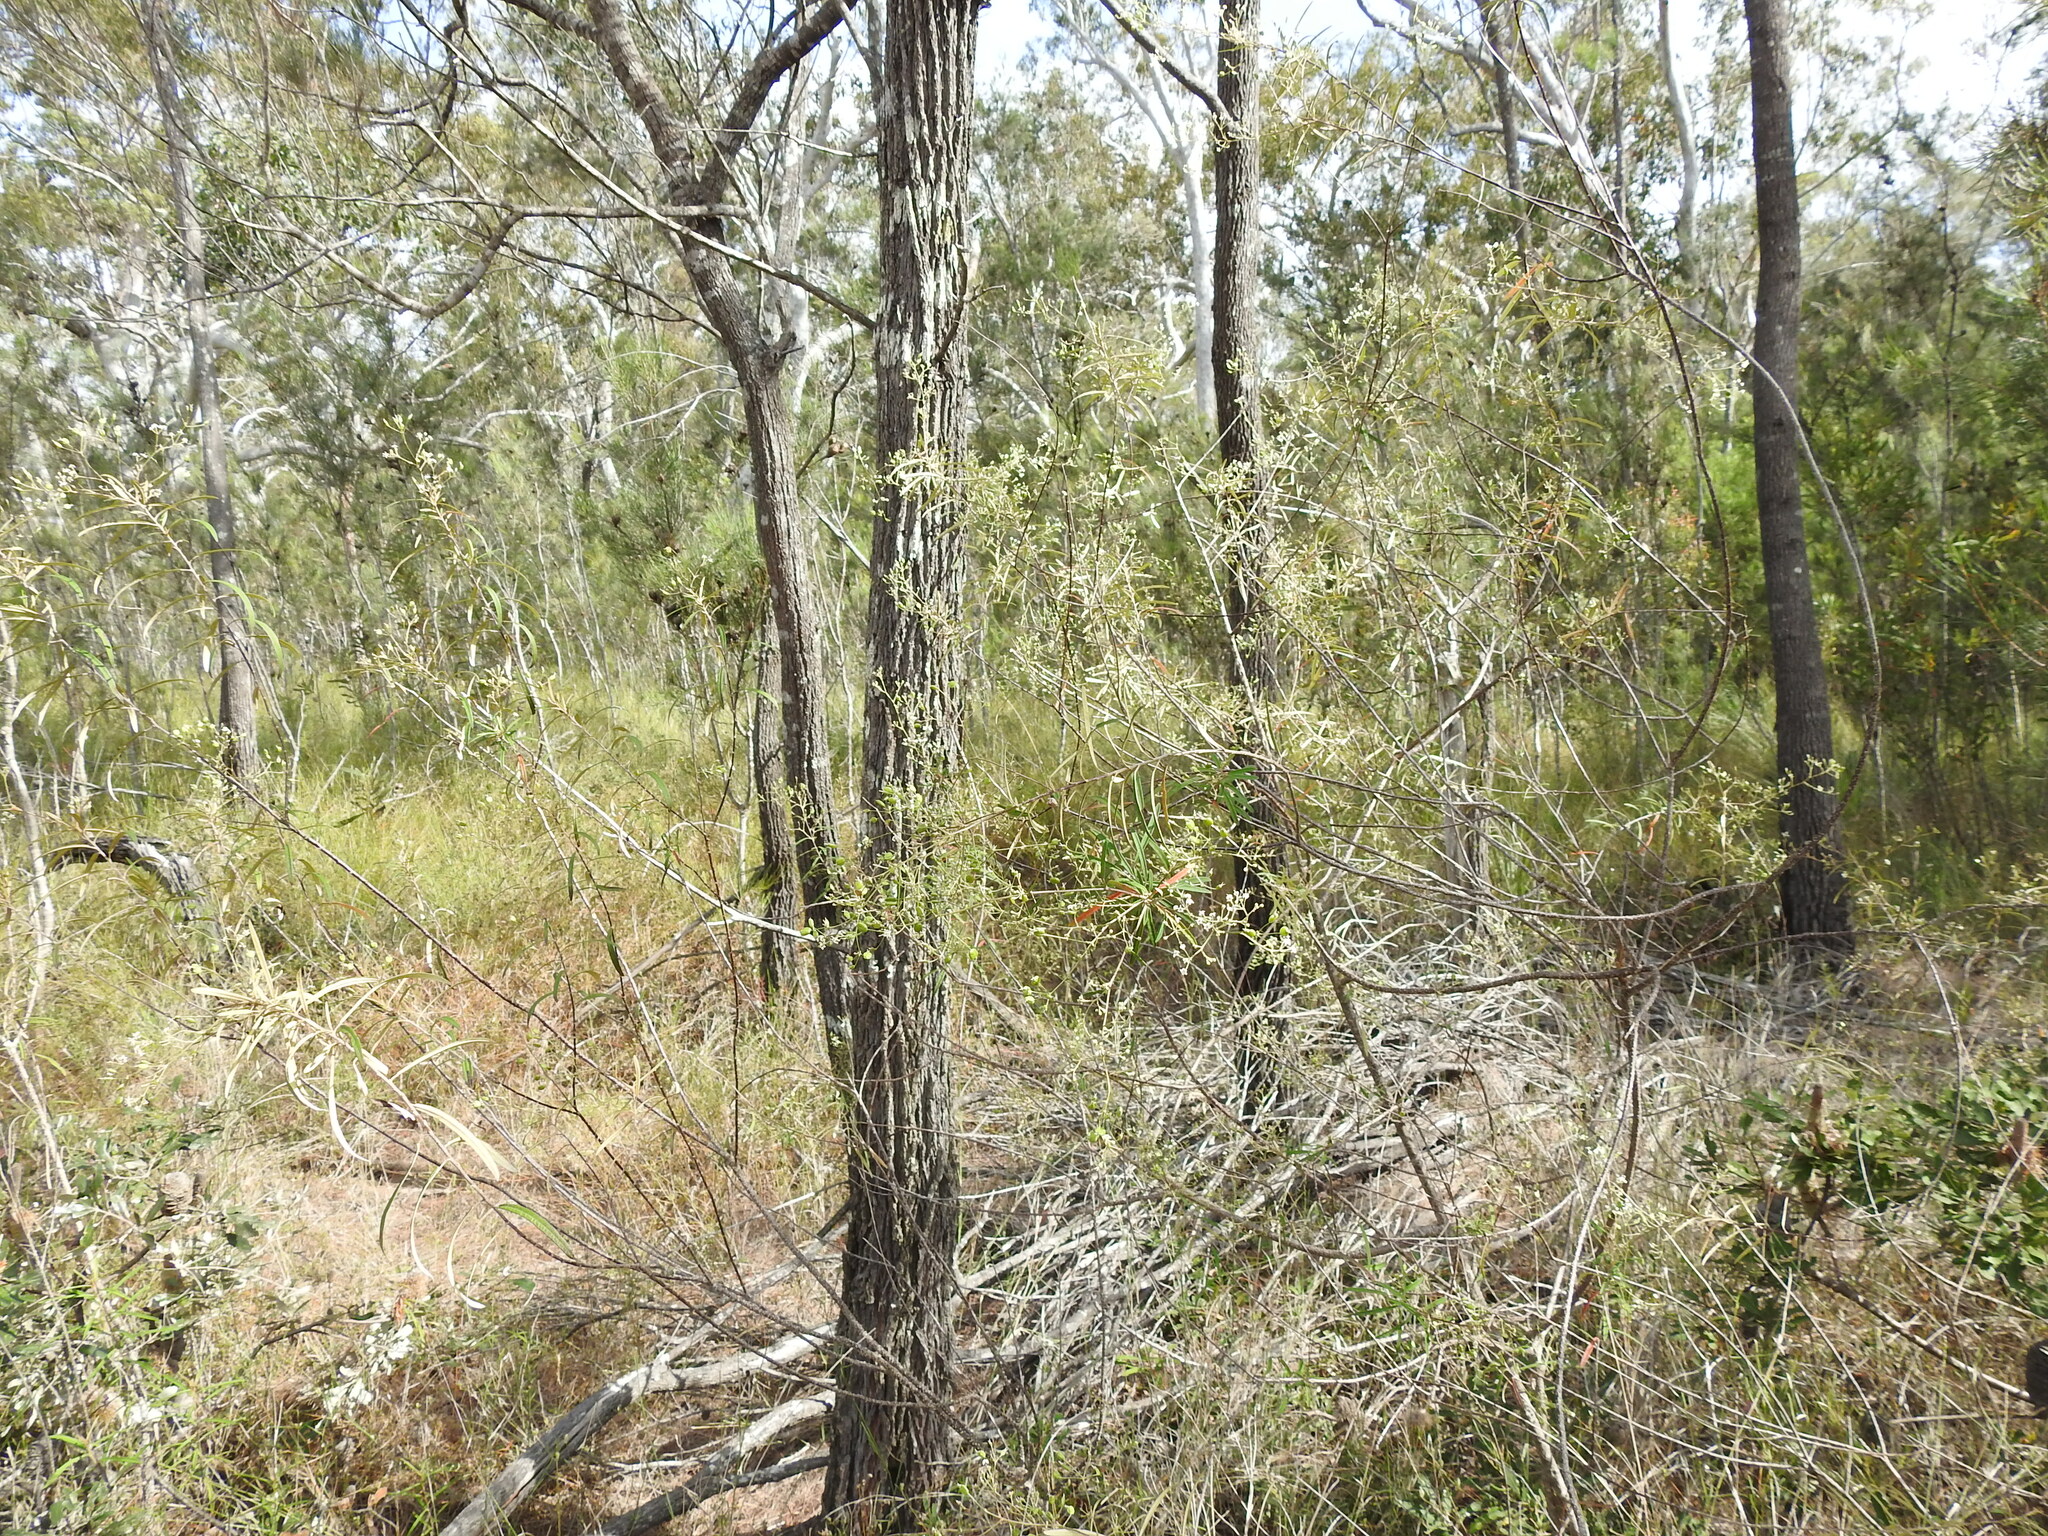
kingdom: Plantae
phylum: Tracheophyta
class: Magnoliopsida
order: Apiales
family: Araliaceae
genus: Astrotricha
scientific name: Astrotricha longifolia
